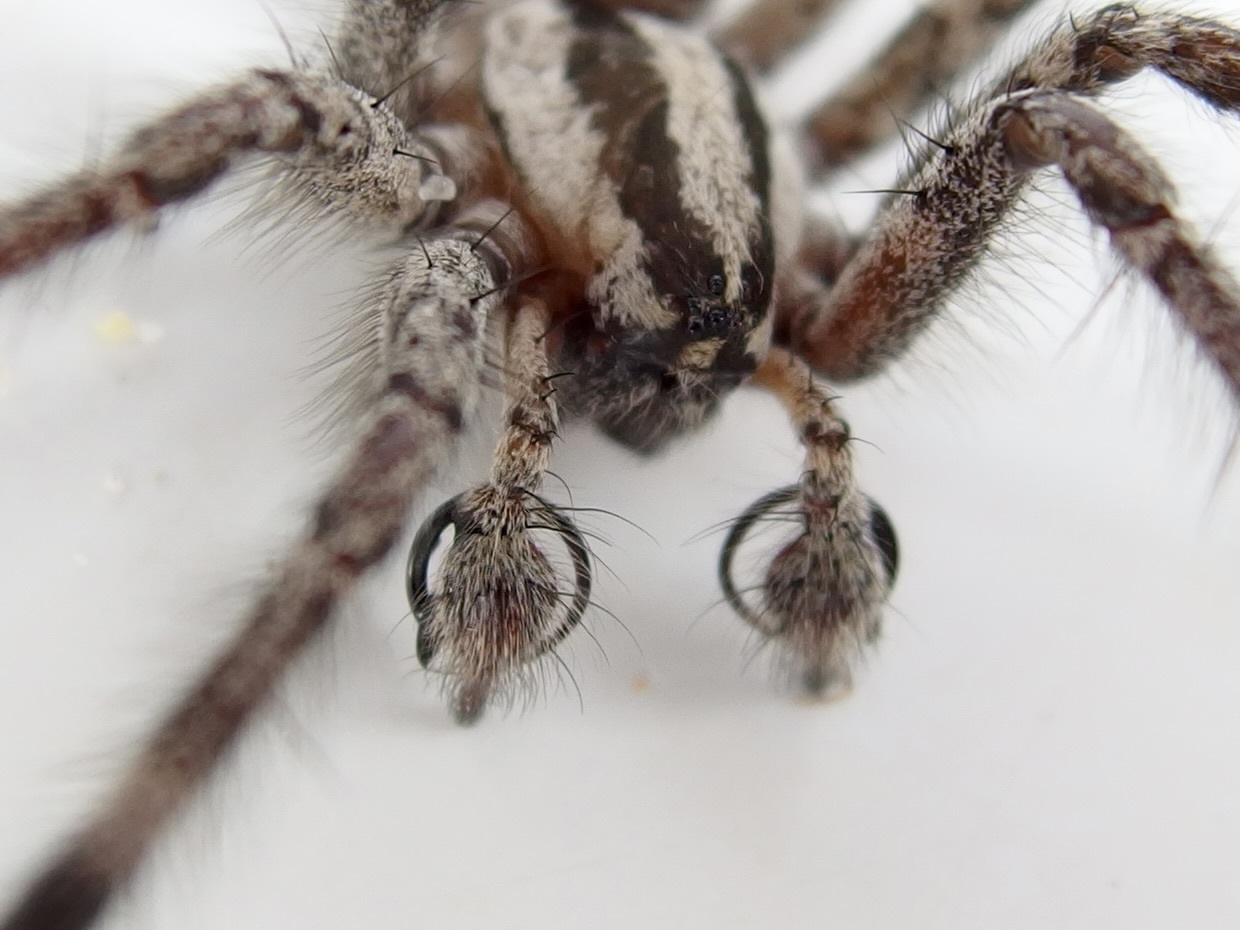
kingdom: Animalia
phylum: Arthropoda
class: Arachnida
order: Araneae
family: Agelenidae
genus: Agelenopsis
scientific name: Agelenopsis
